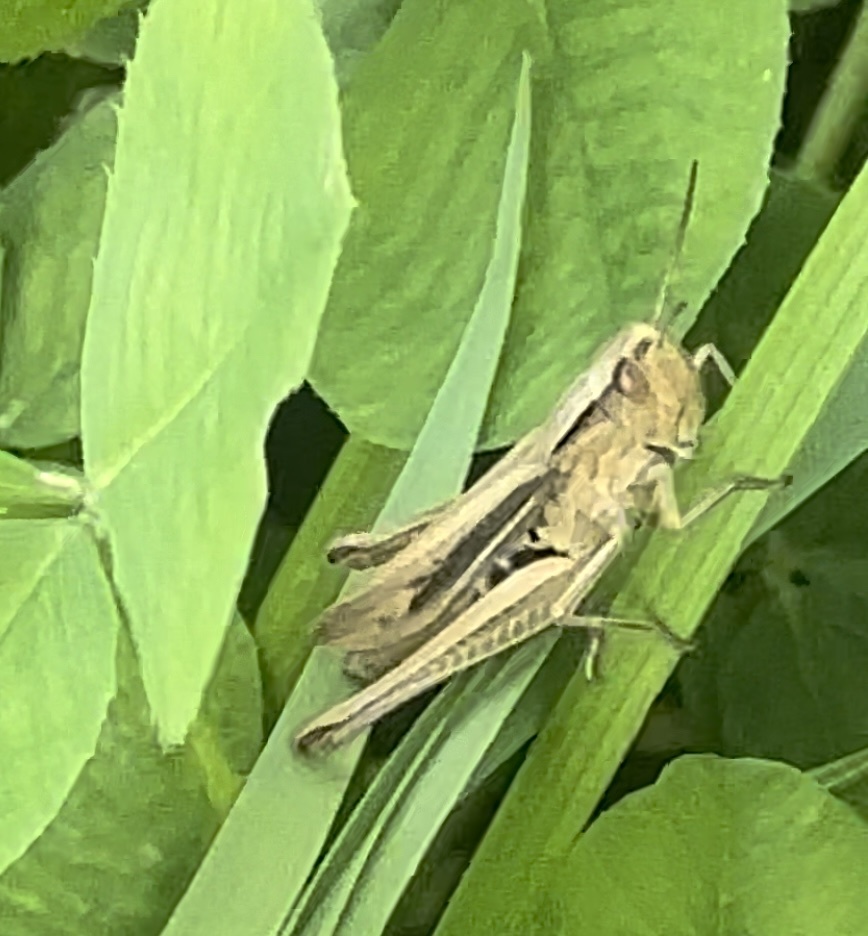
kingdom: Animalia
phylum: Arthropoda
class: Insecta
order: Orthoptera
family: Acrididae
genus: Chorthippus
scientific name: Chorthippus albomarginatus
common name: Lesser marsh grasshopper
